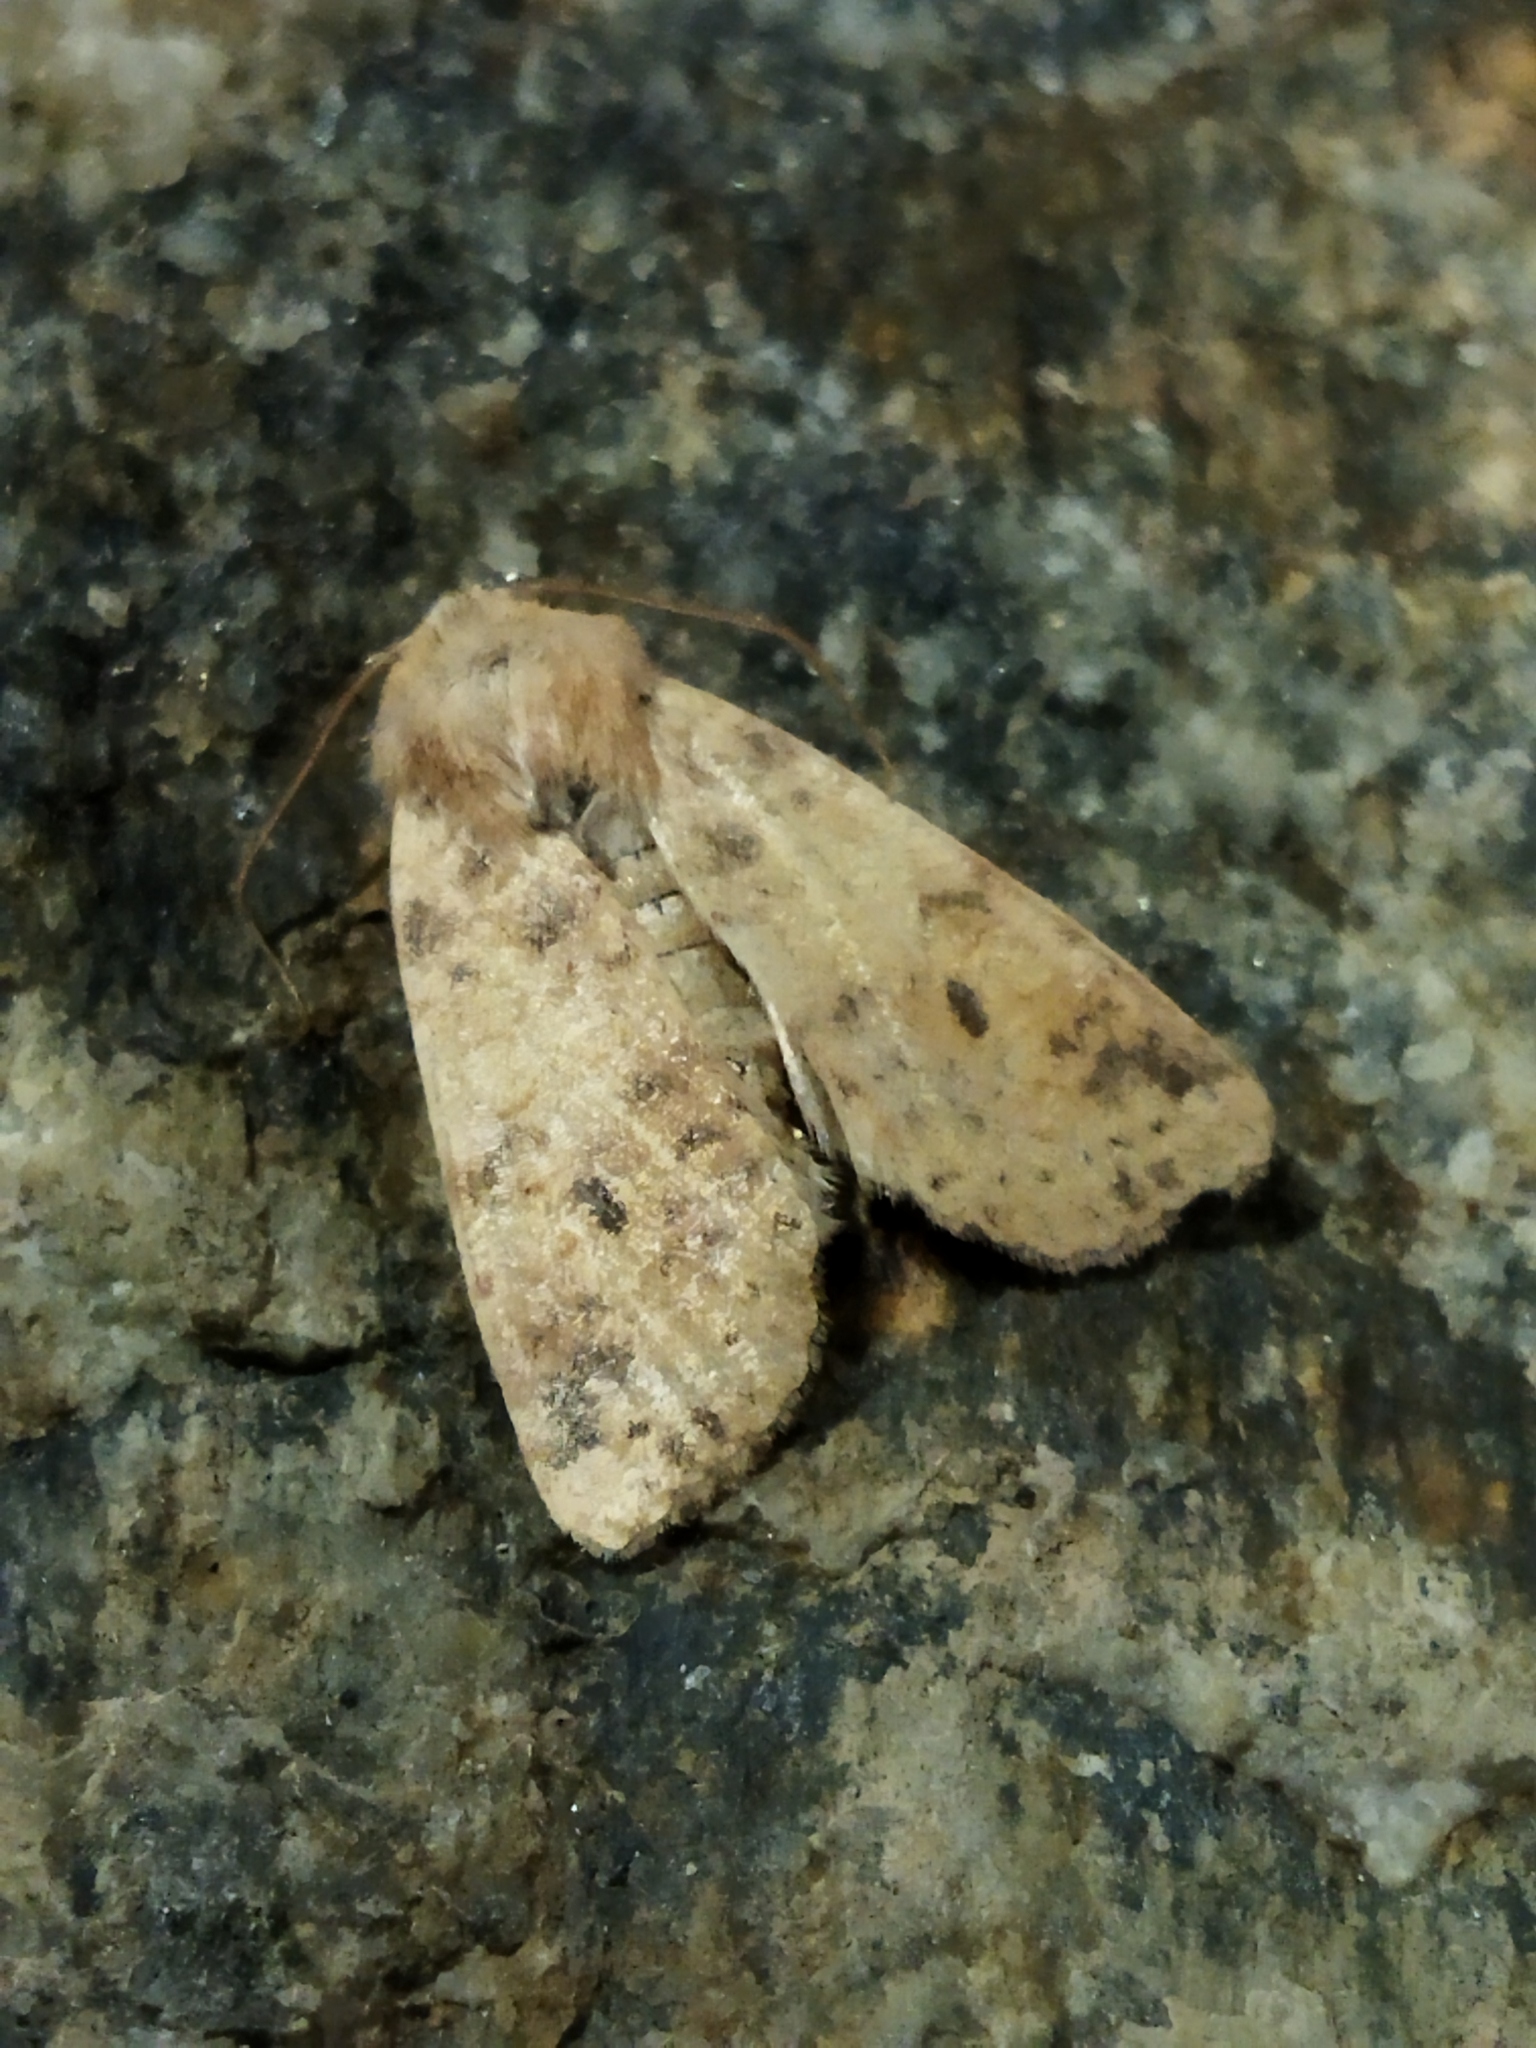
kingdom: Animalia
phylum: Arthropoda
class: Insecta
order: Lepidoptera
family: Noctuidae
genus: Xanthia
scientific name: Xanthia gilvago
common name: Dusky-lemon sallow
